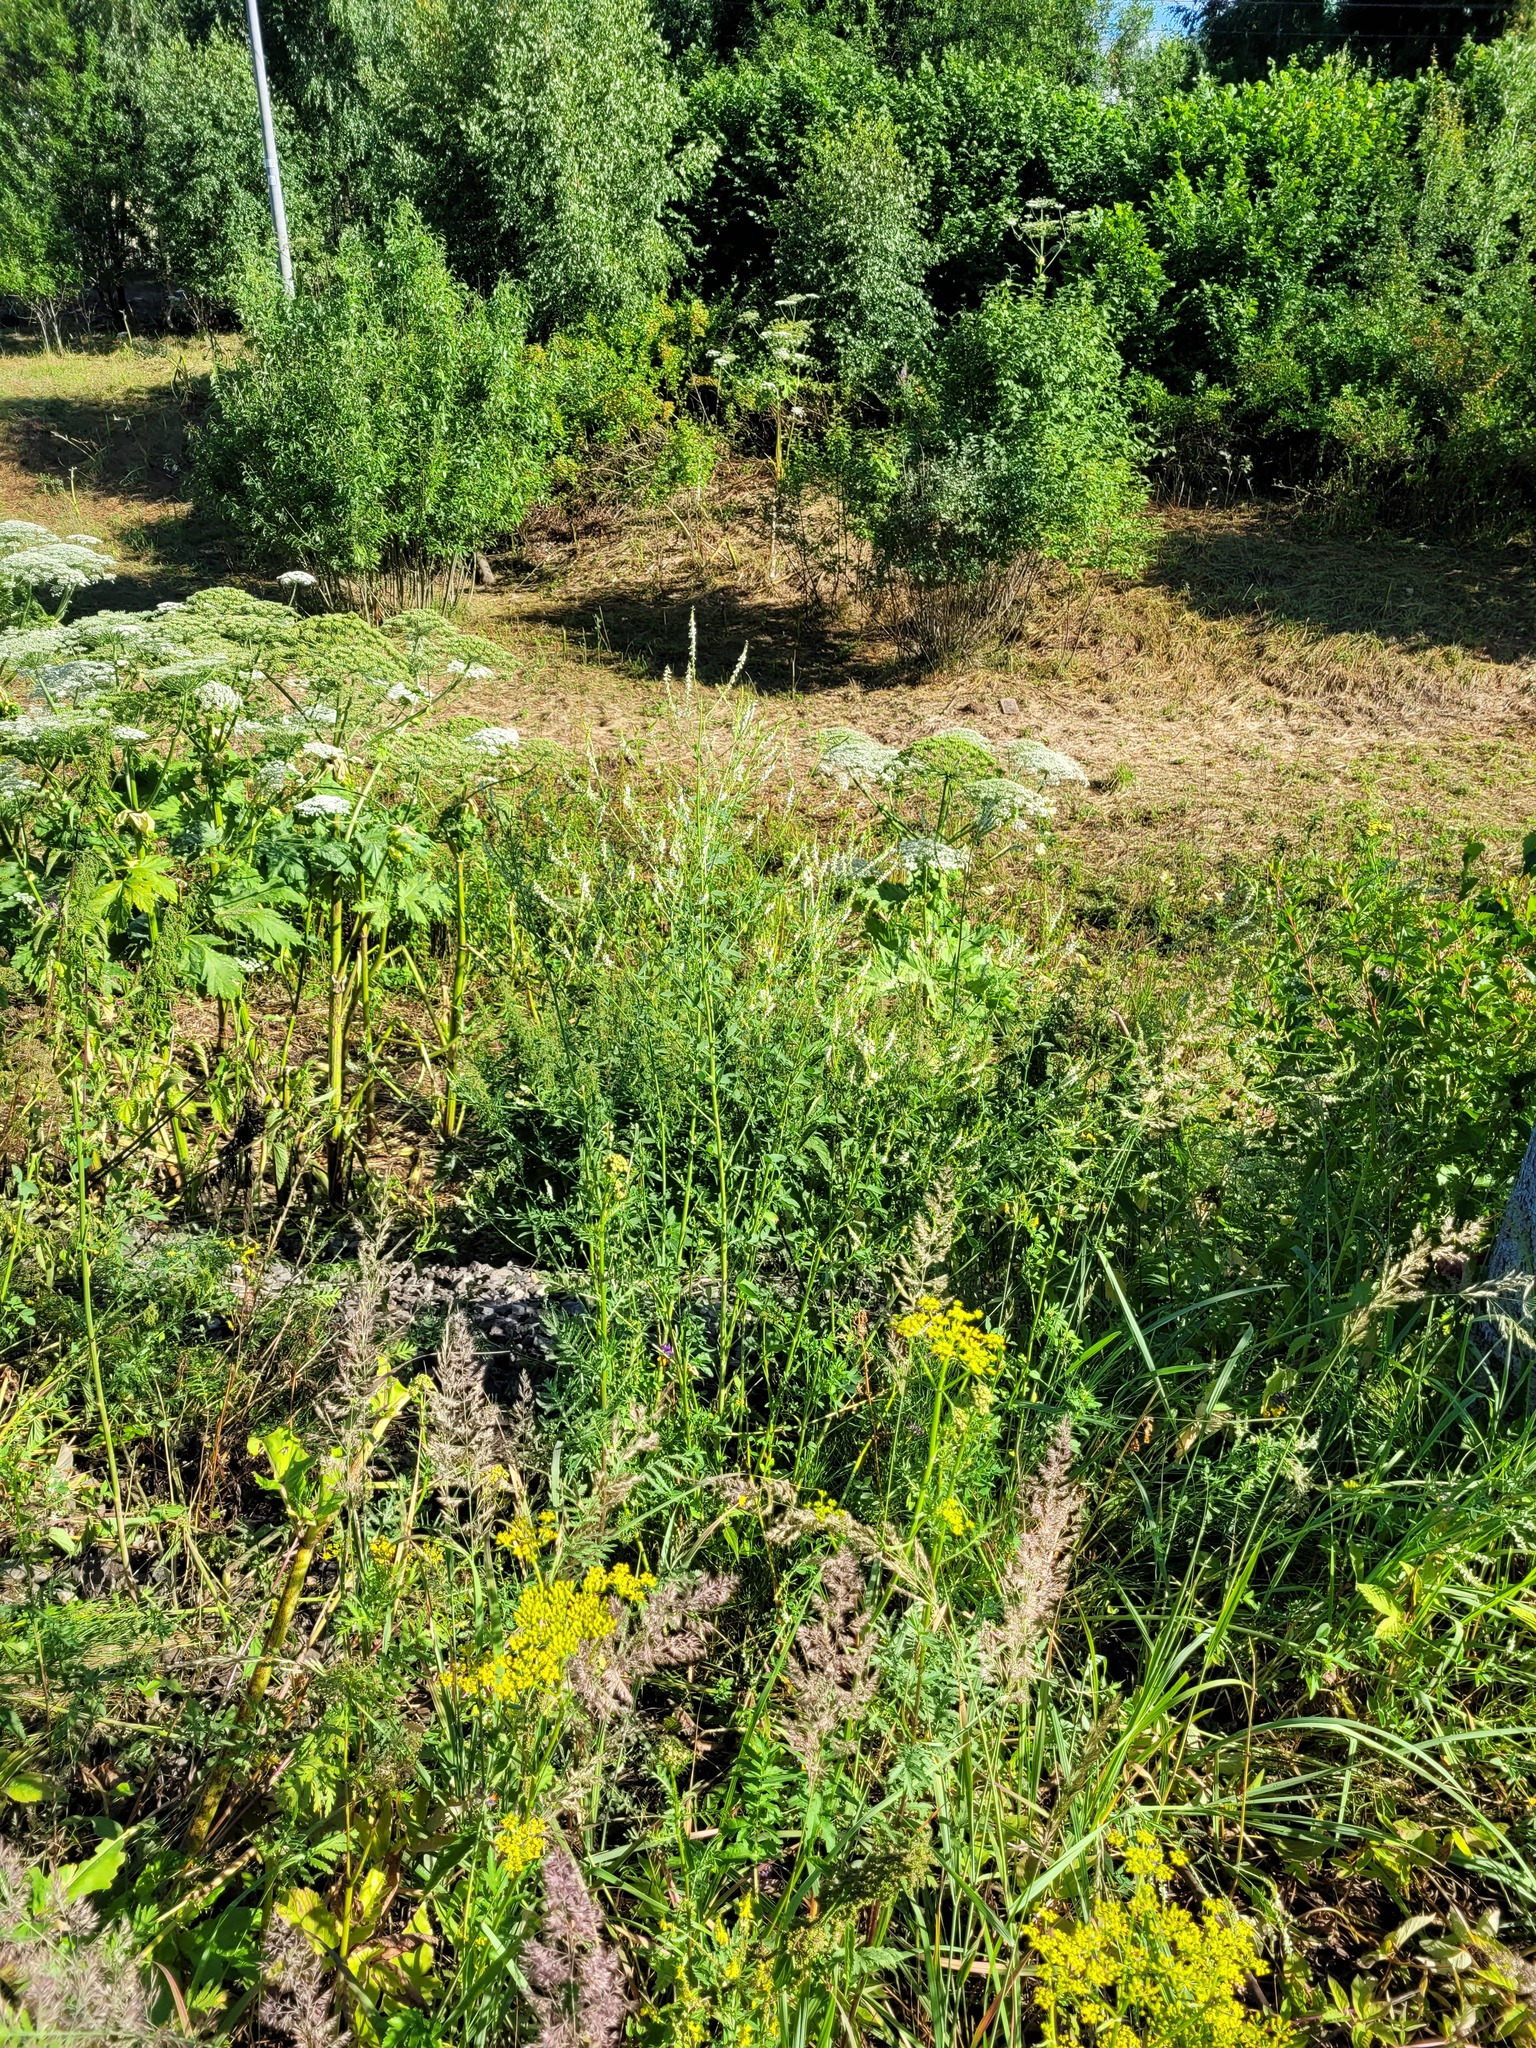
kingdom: Plantae
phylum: Tracheophyta
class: Magnoliopsida
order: Fabales
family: Fabaceae
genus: Melilotus
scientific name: Melilotus albus
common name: White melilot
